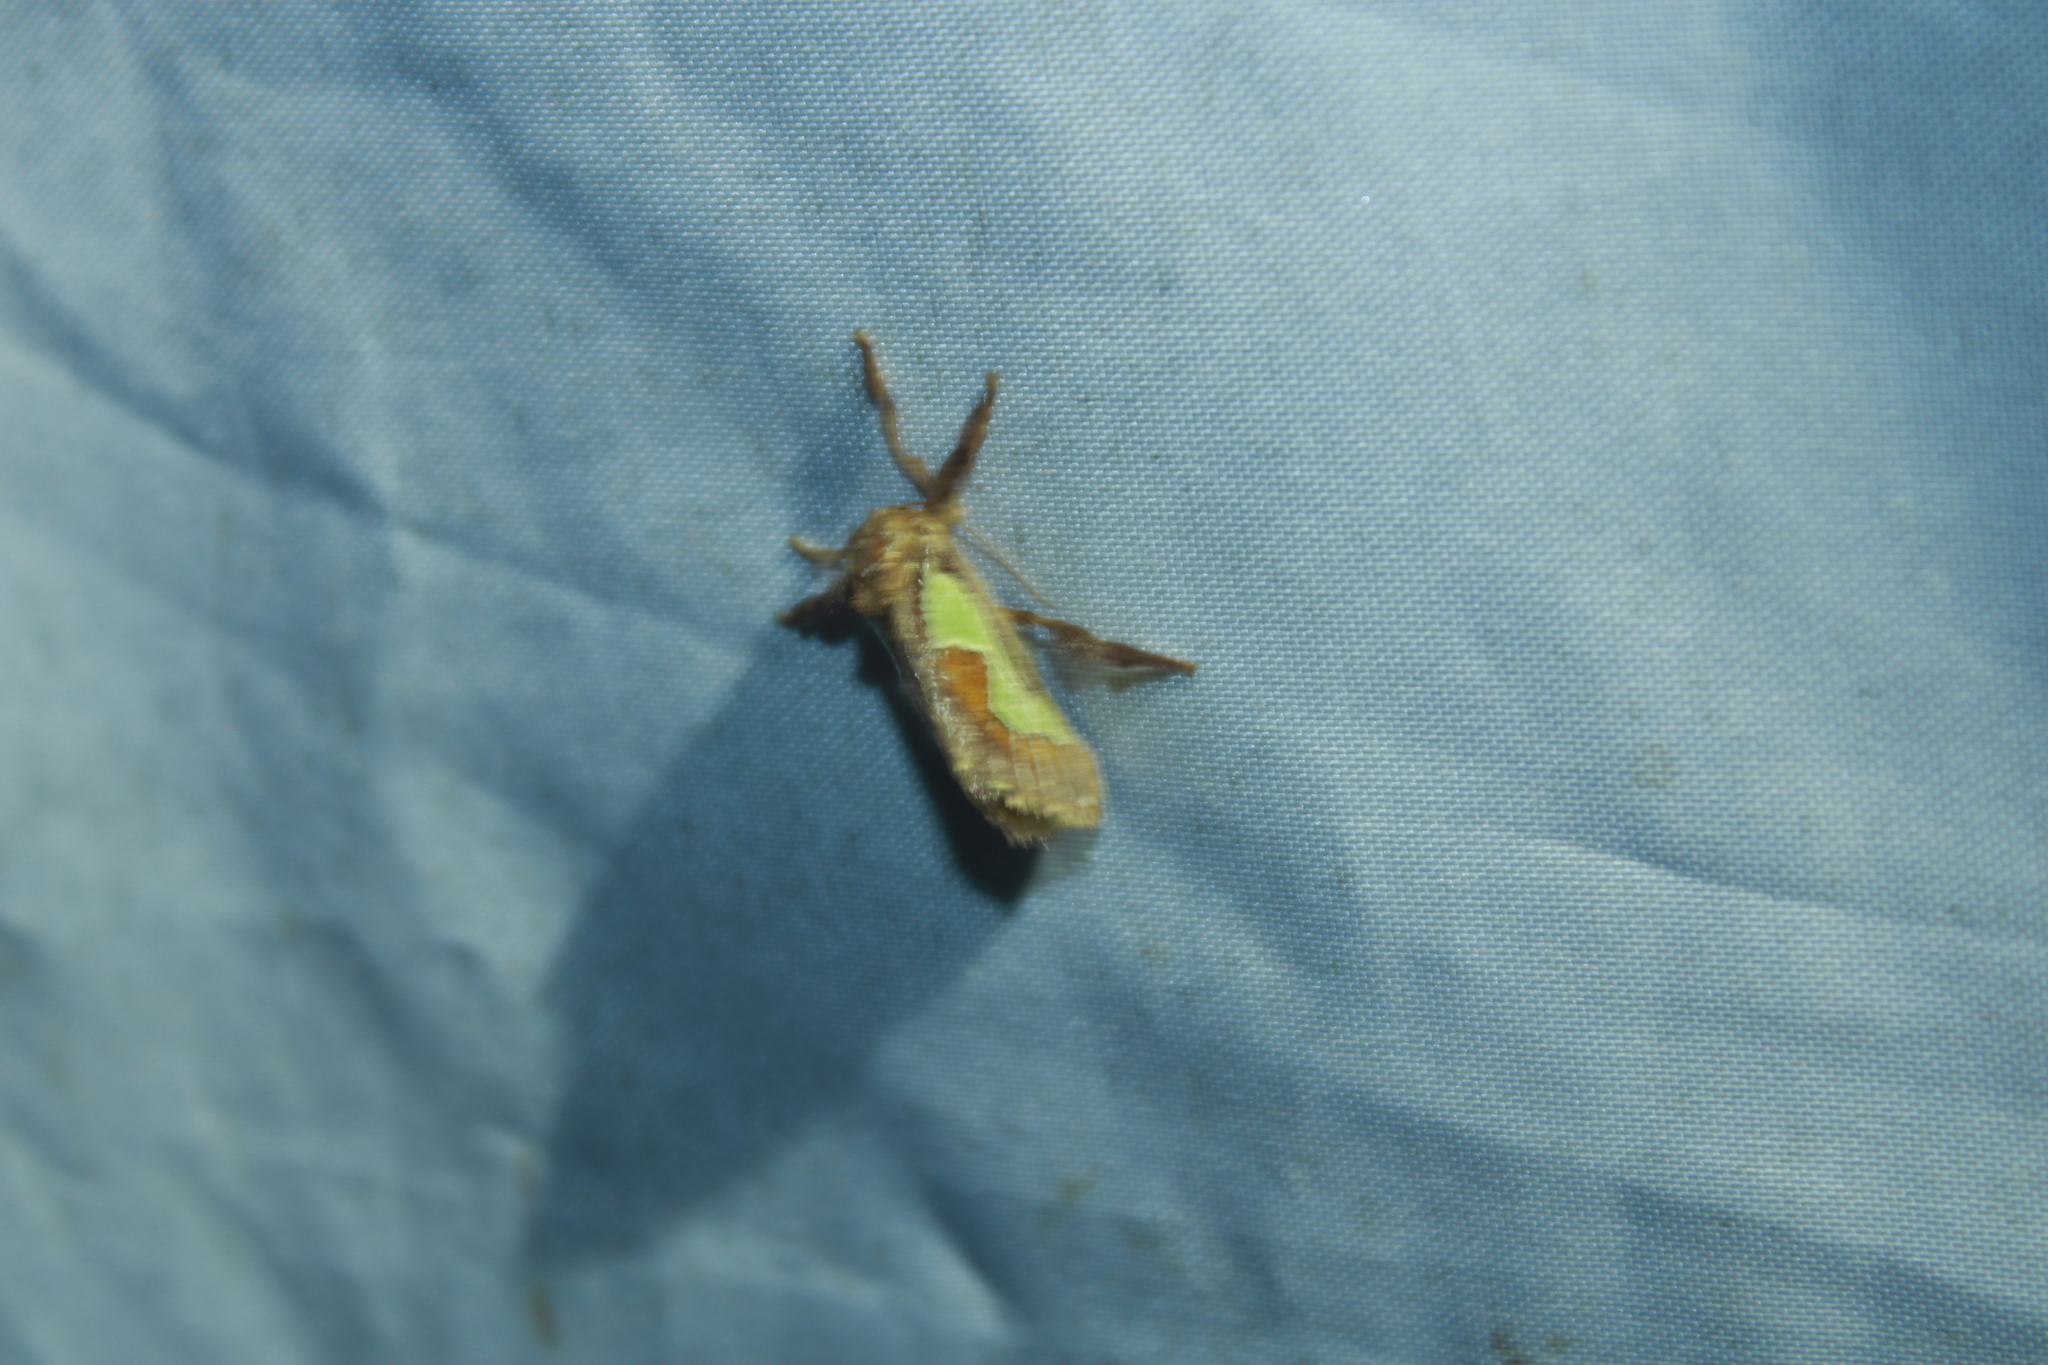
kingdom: Animalia
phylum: Arthropoda
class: Insecta
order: Lepidoptera
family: Limacodidae
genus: Euclea
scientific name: Euclea delphinii
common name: Spiny oak-slug moth
